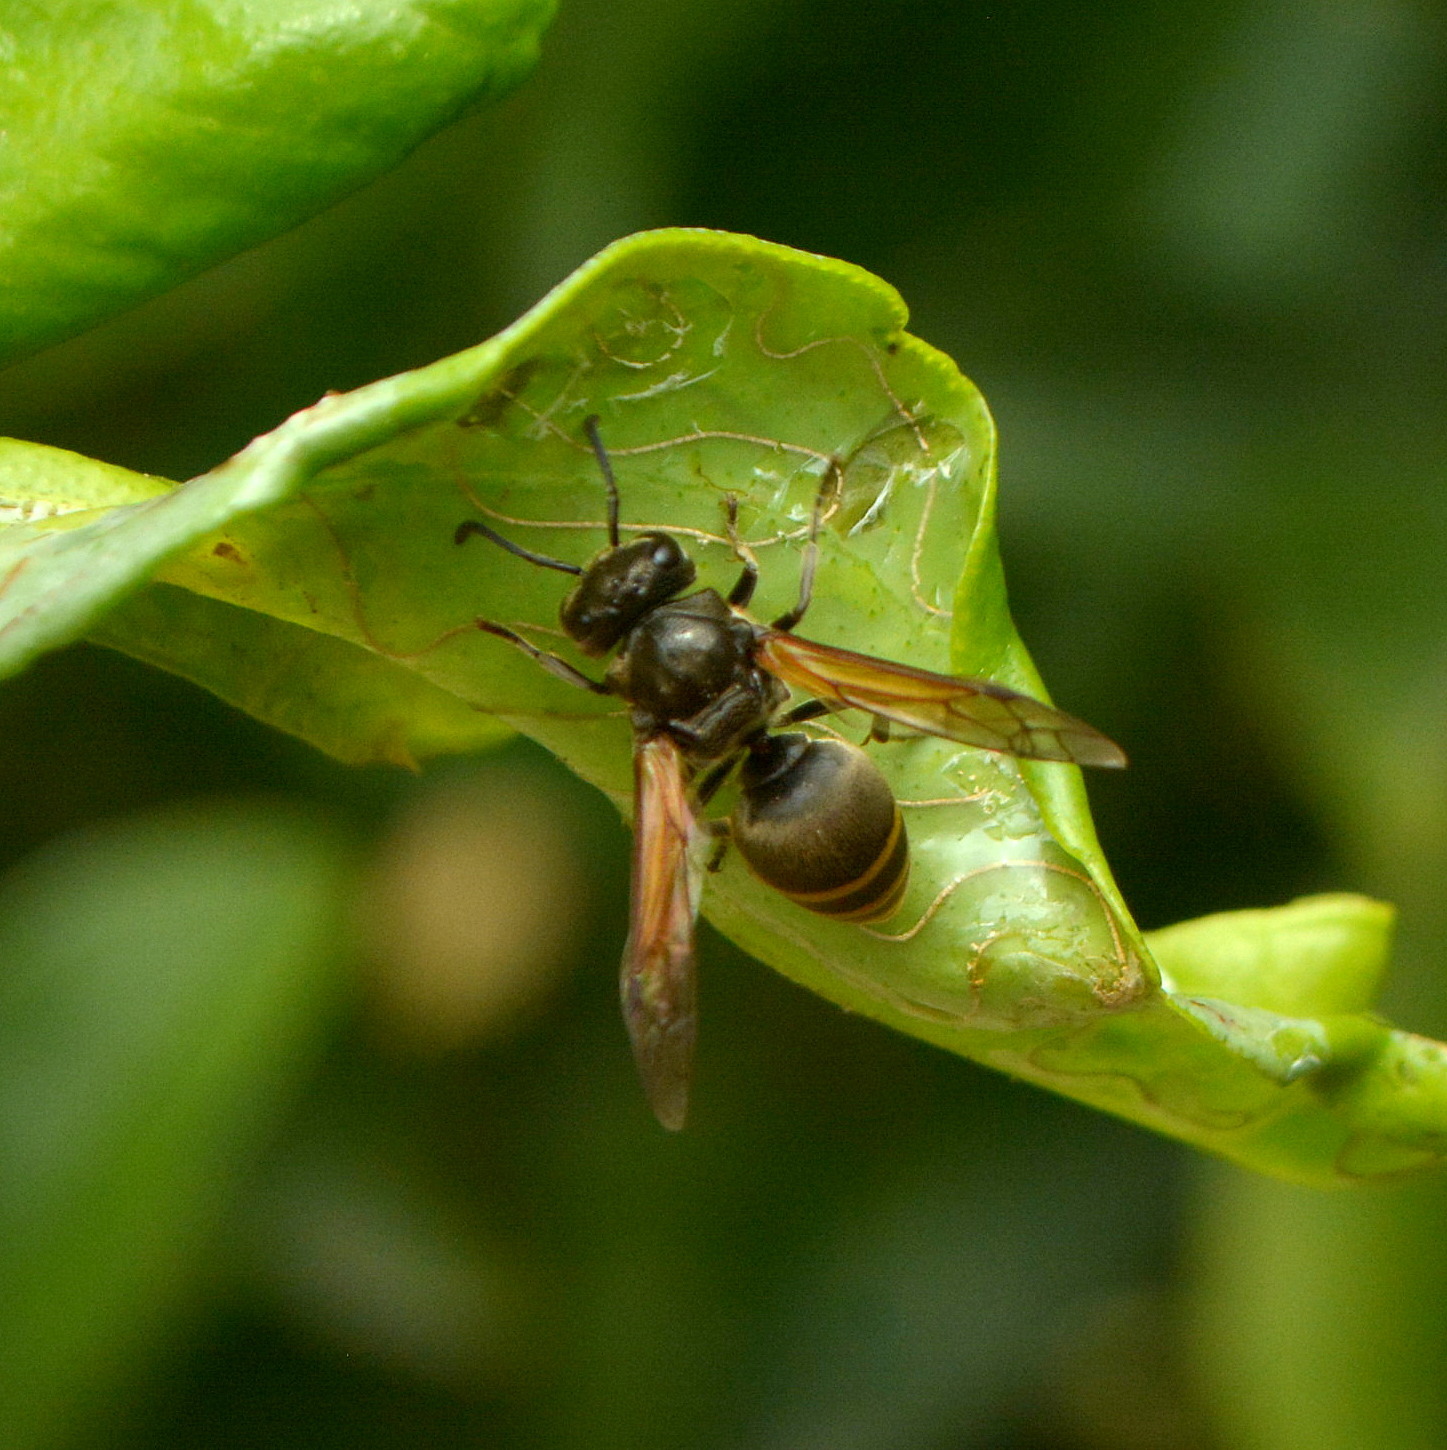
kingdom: Animalia
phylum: Arthropoda
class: Insecta
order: Hymenoptera
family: Vespidae
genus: Brachygastra
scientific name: Brachygastra lecheguana
